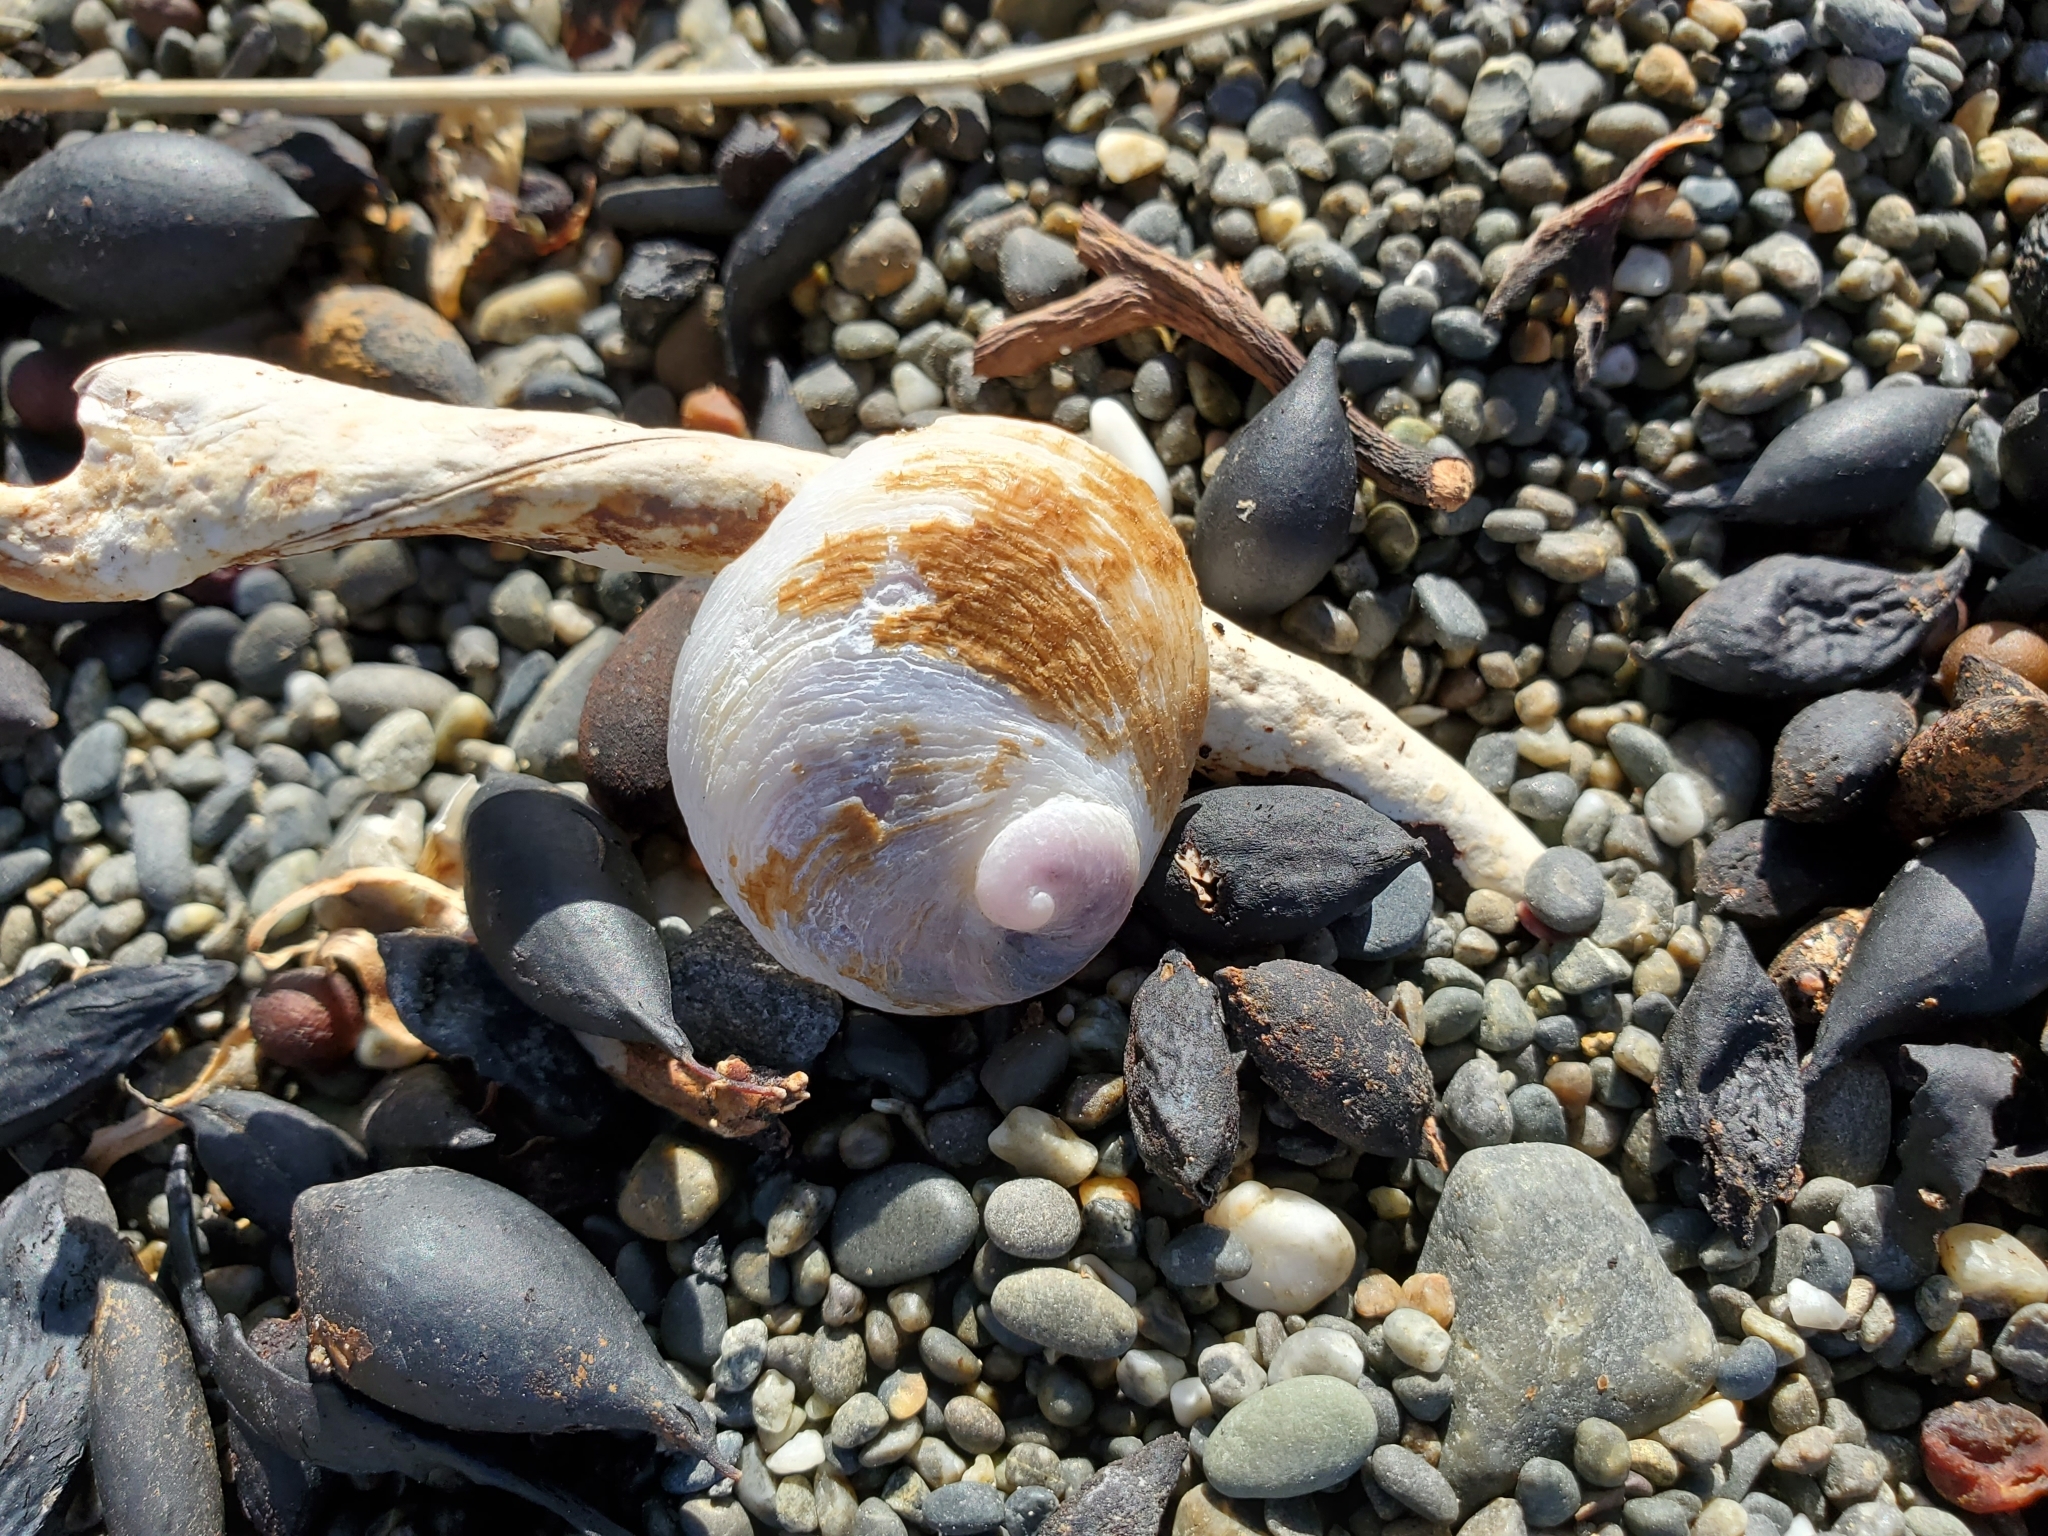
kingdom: Animalia
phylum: Mollusca
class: Gastropoda
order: Littorinimorpha
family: Calyptraeidae
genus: Sigapatella
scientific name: Sigapatella novaezelandiae
